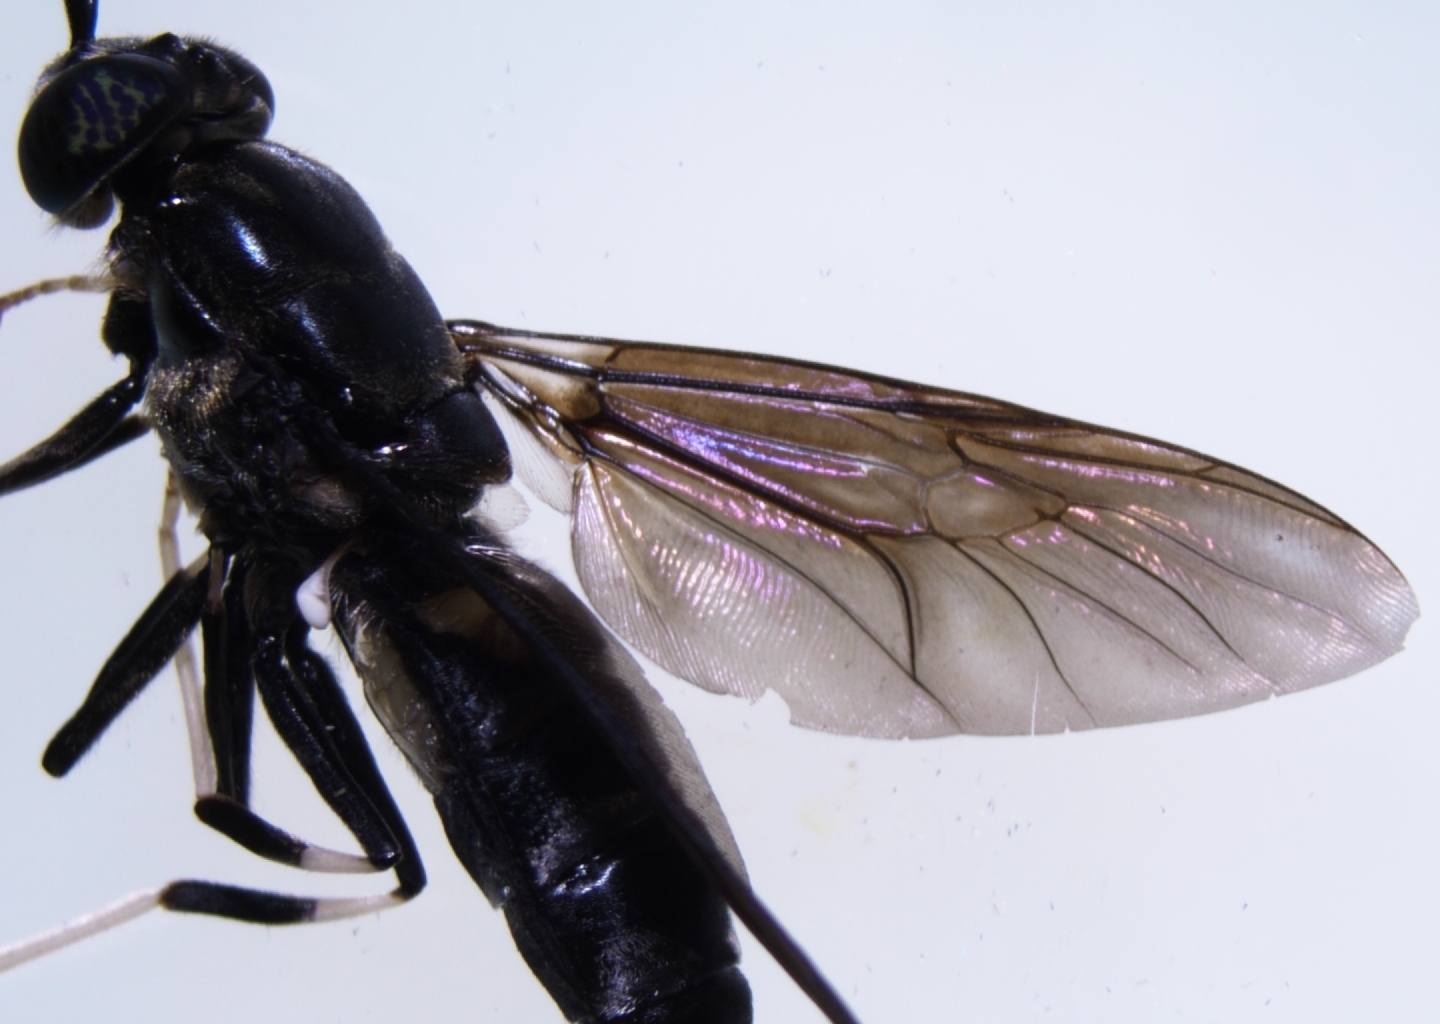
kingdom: Animalia
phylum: Arthropoda
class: Insecta
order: Diptera
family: Stratiomyidae
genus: Hermetia
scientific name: Hermetia illucens
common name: Black soldier fly
